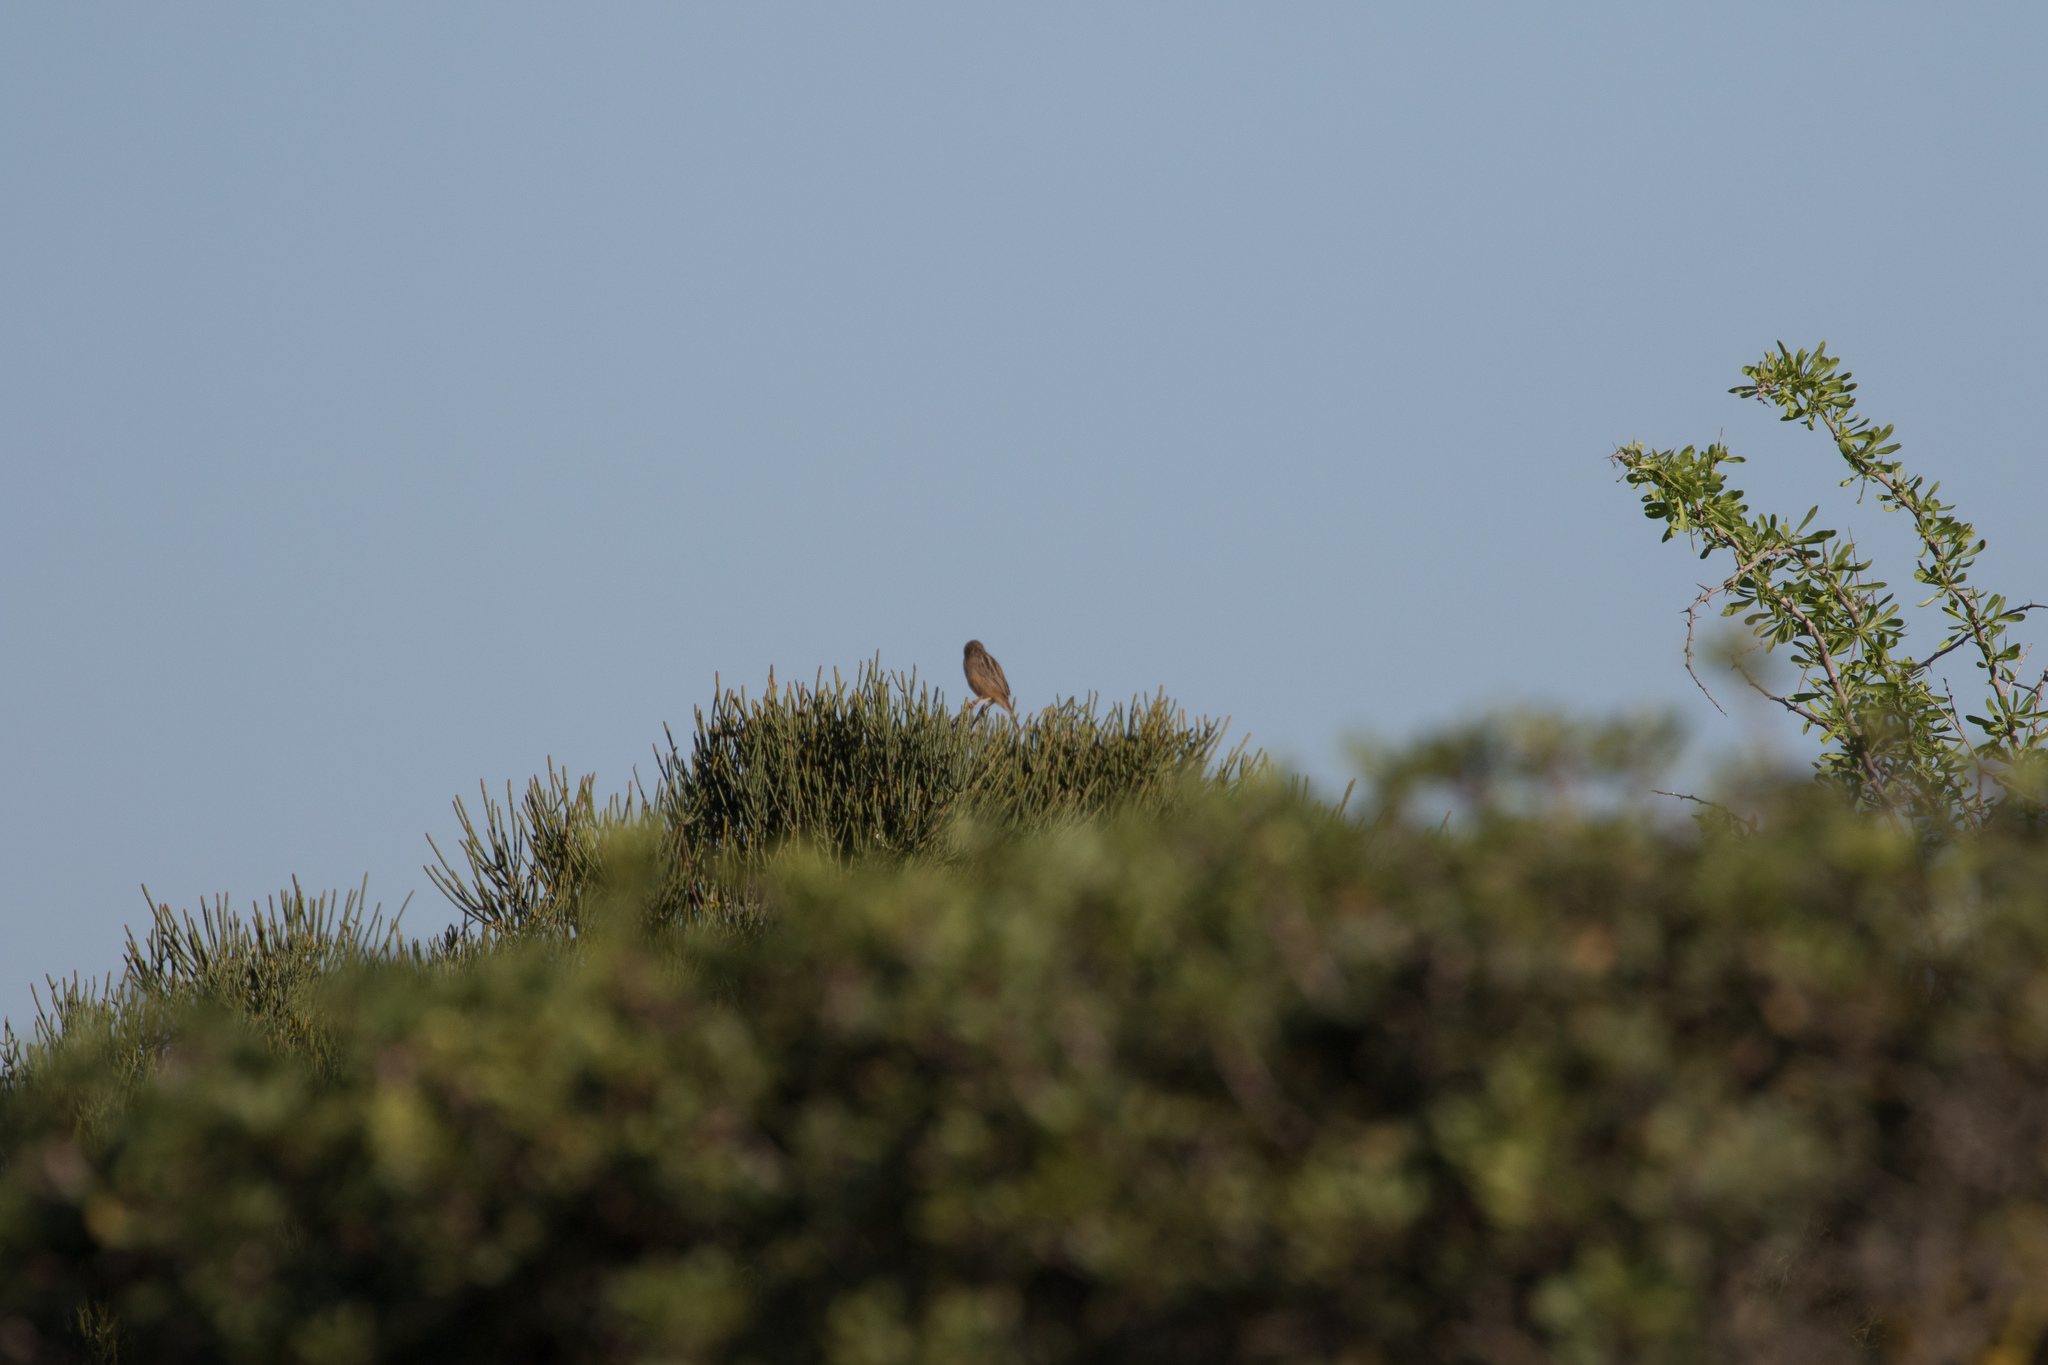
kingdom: Animalia
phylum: Chordata
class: Aves
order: Passeriformes
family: Cisticolidae
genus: Cisticola
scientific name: Cisticola juncidis
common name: Zitting cisticola
